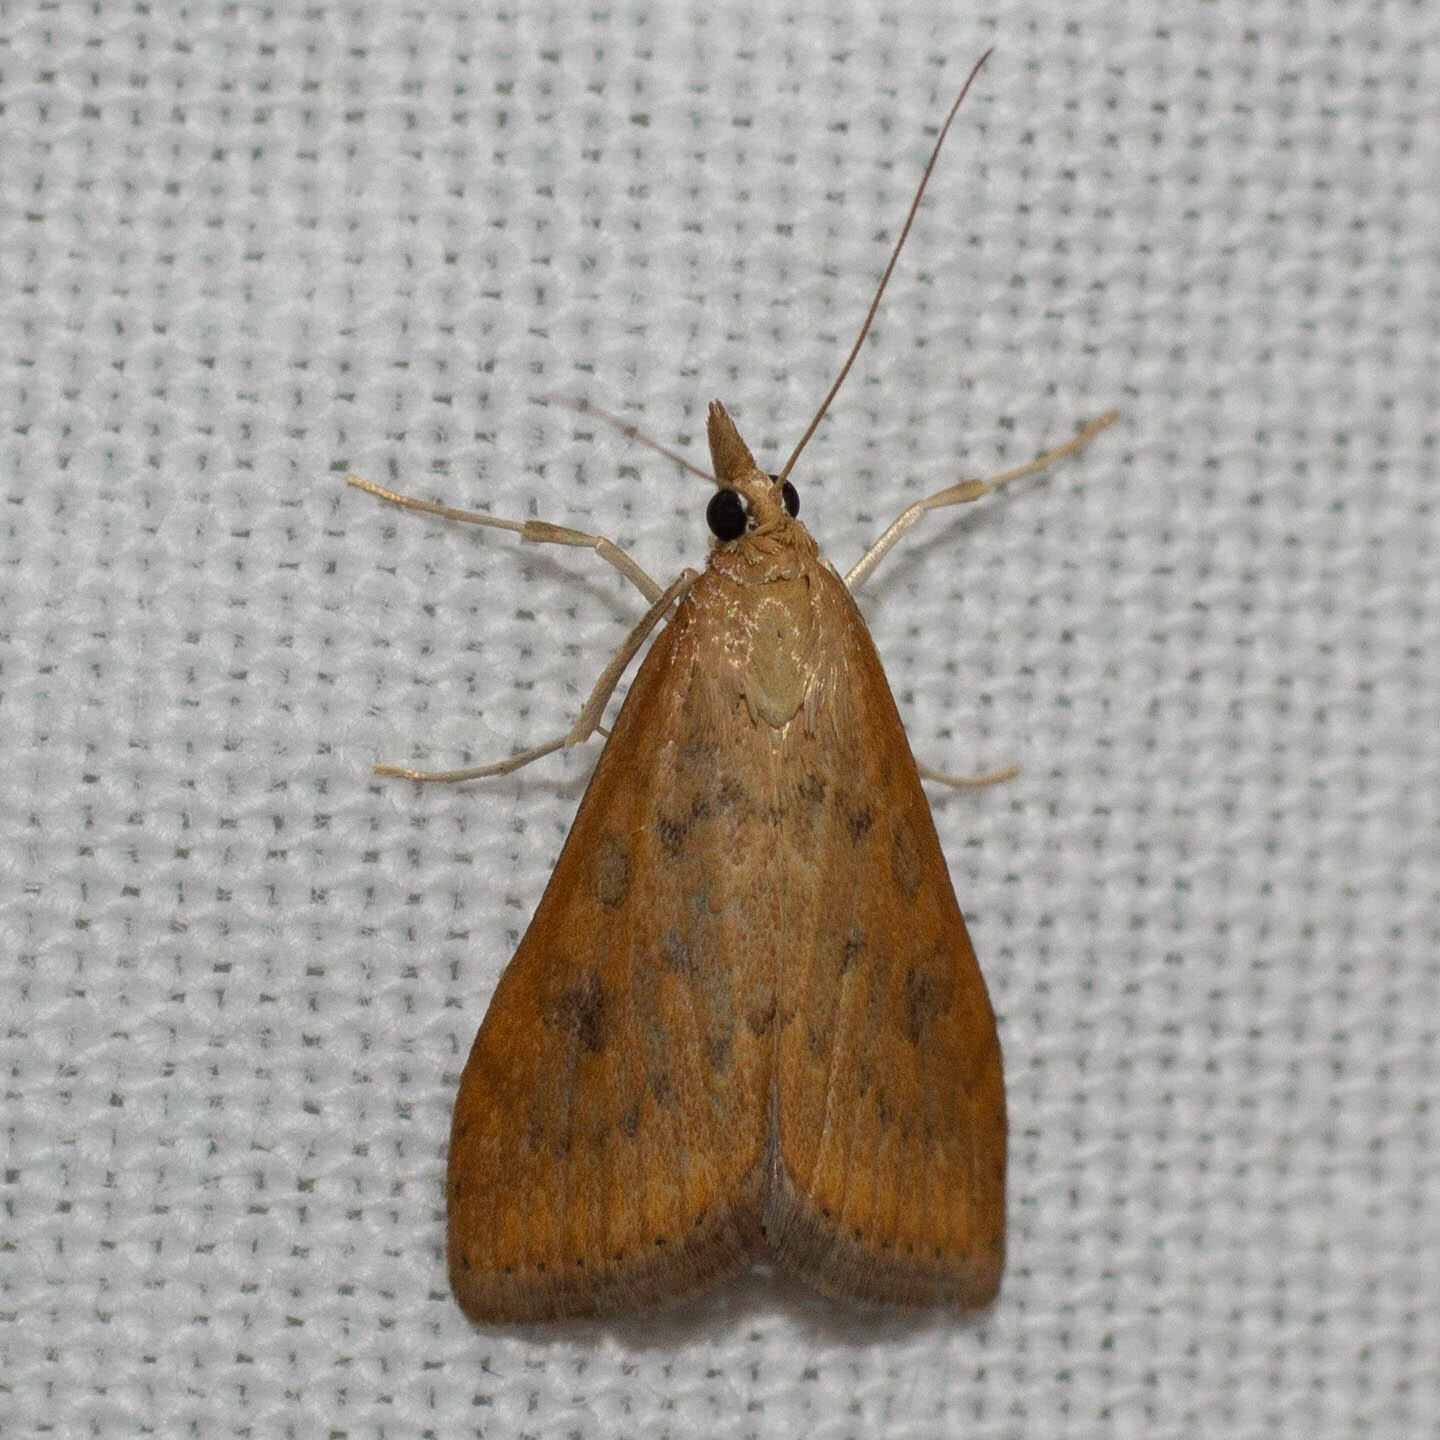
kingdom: Animalia
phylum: Arthropoda
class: Insecta
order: Lepidoptera
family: Crambidae
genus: Udea
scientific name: Udea ferrugalis
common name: Rusty dot
